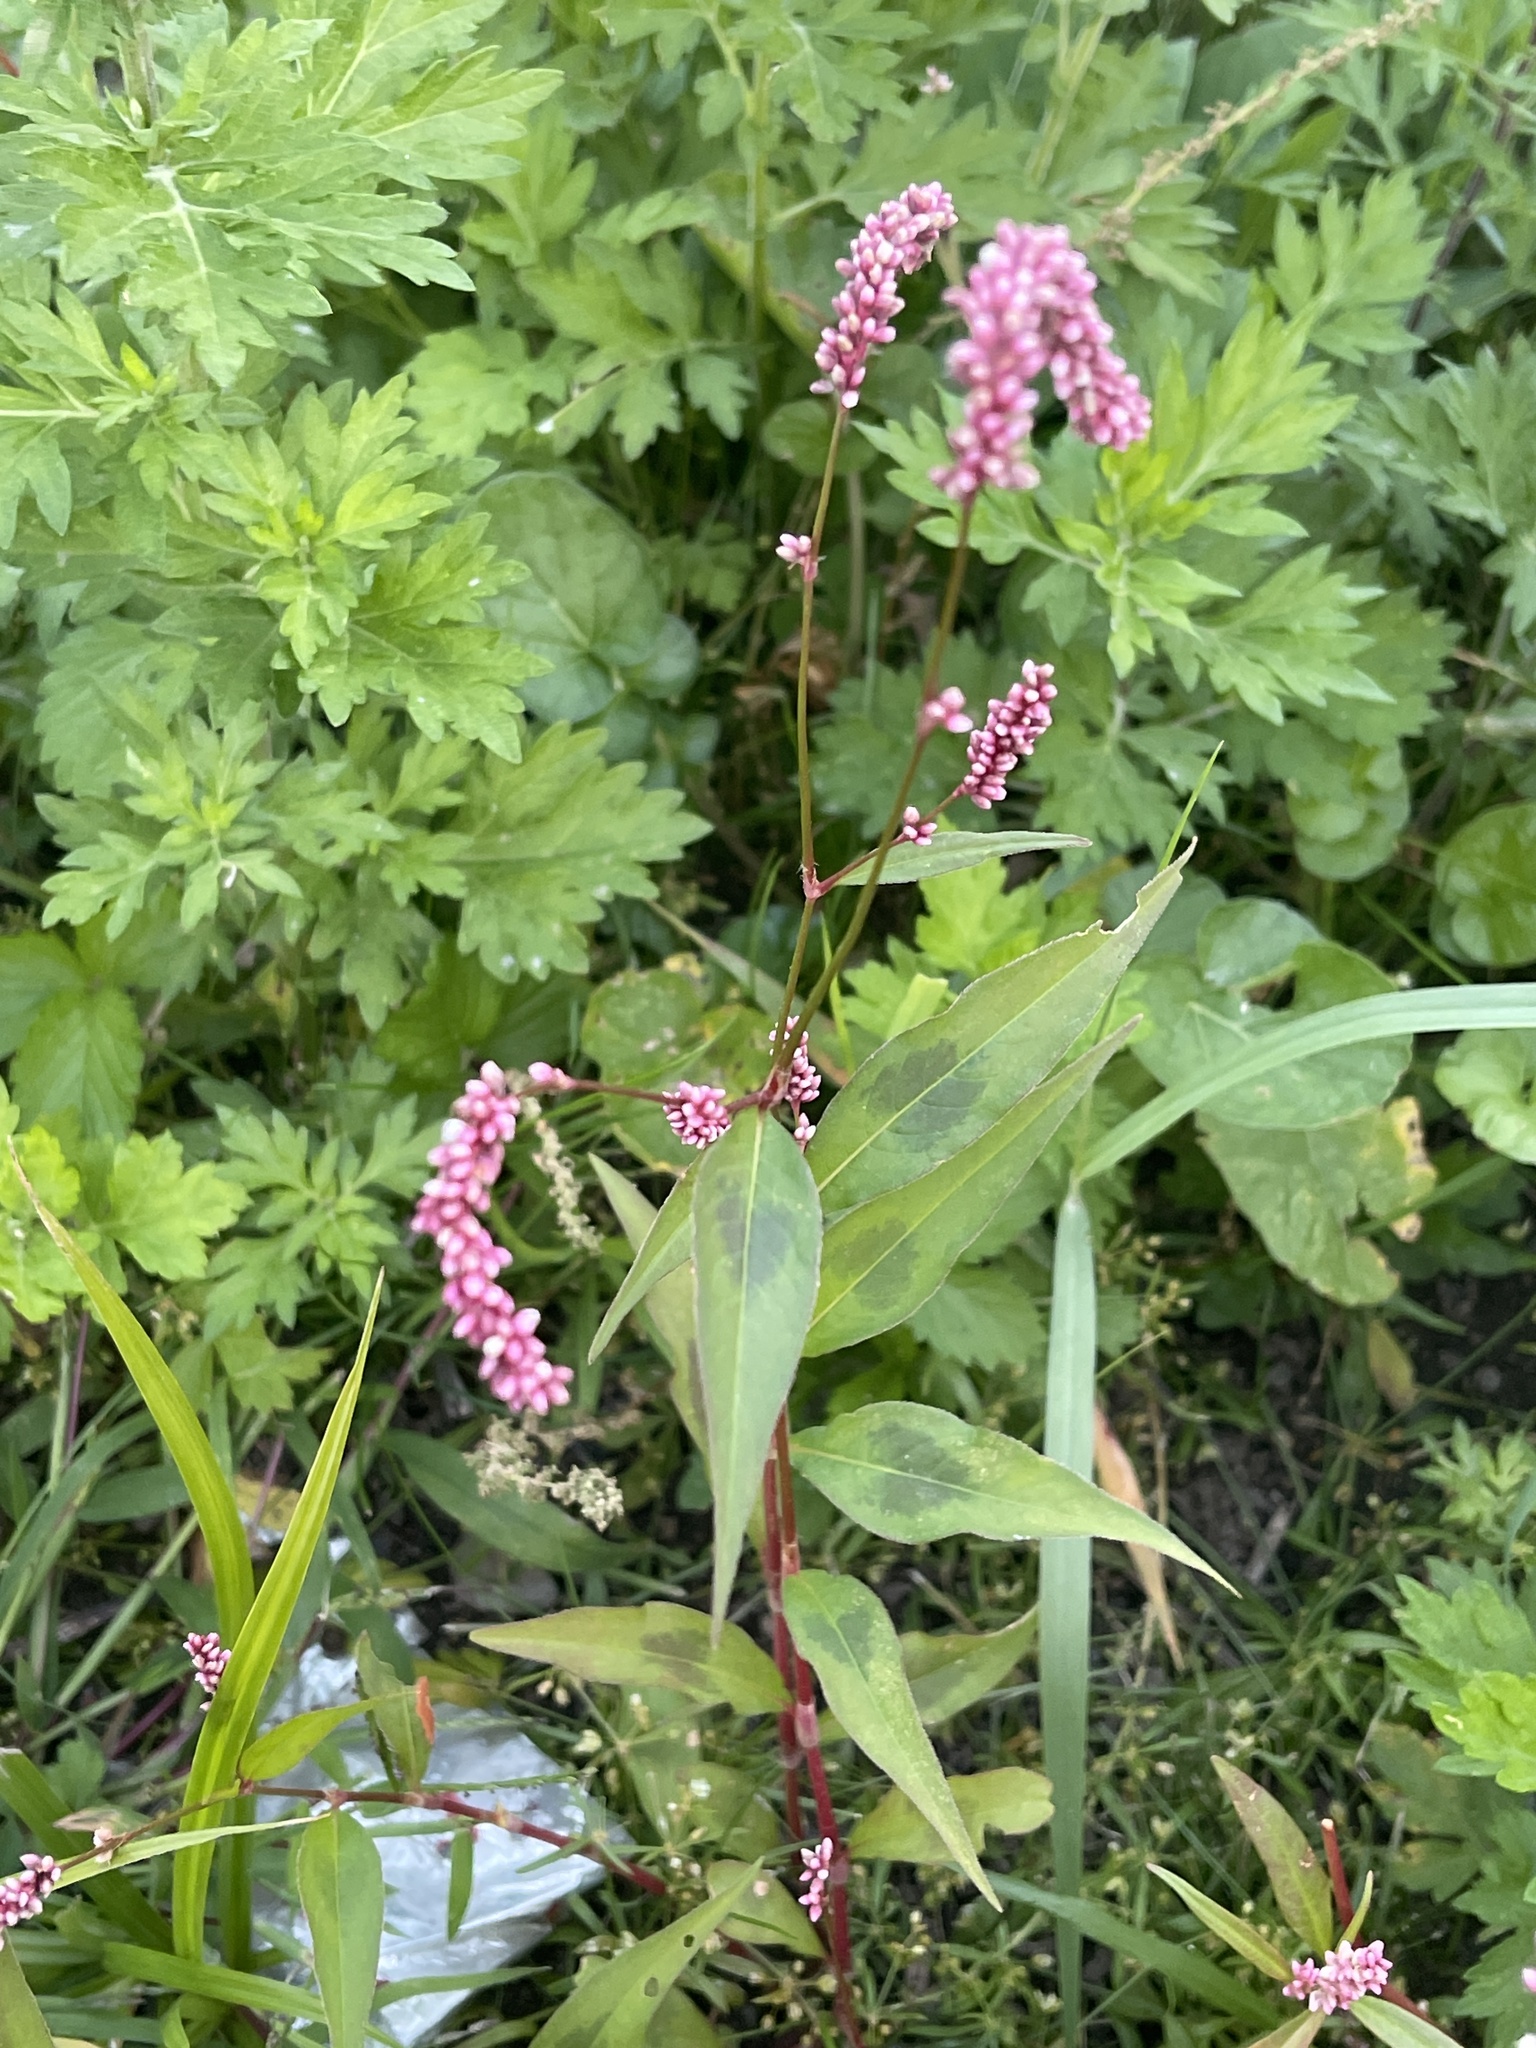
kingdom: Plantae
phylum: Tracheophyta
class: Magnoliopsida
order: Caryophyllales
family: Polygonaceae
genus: Persicaria
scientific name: Persicaria extremiorientalis
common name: Far-eastern smartweed
